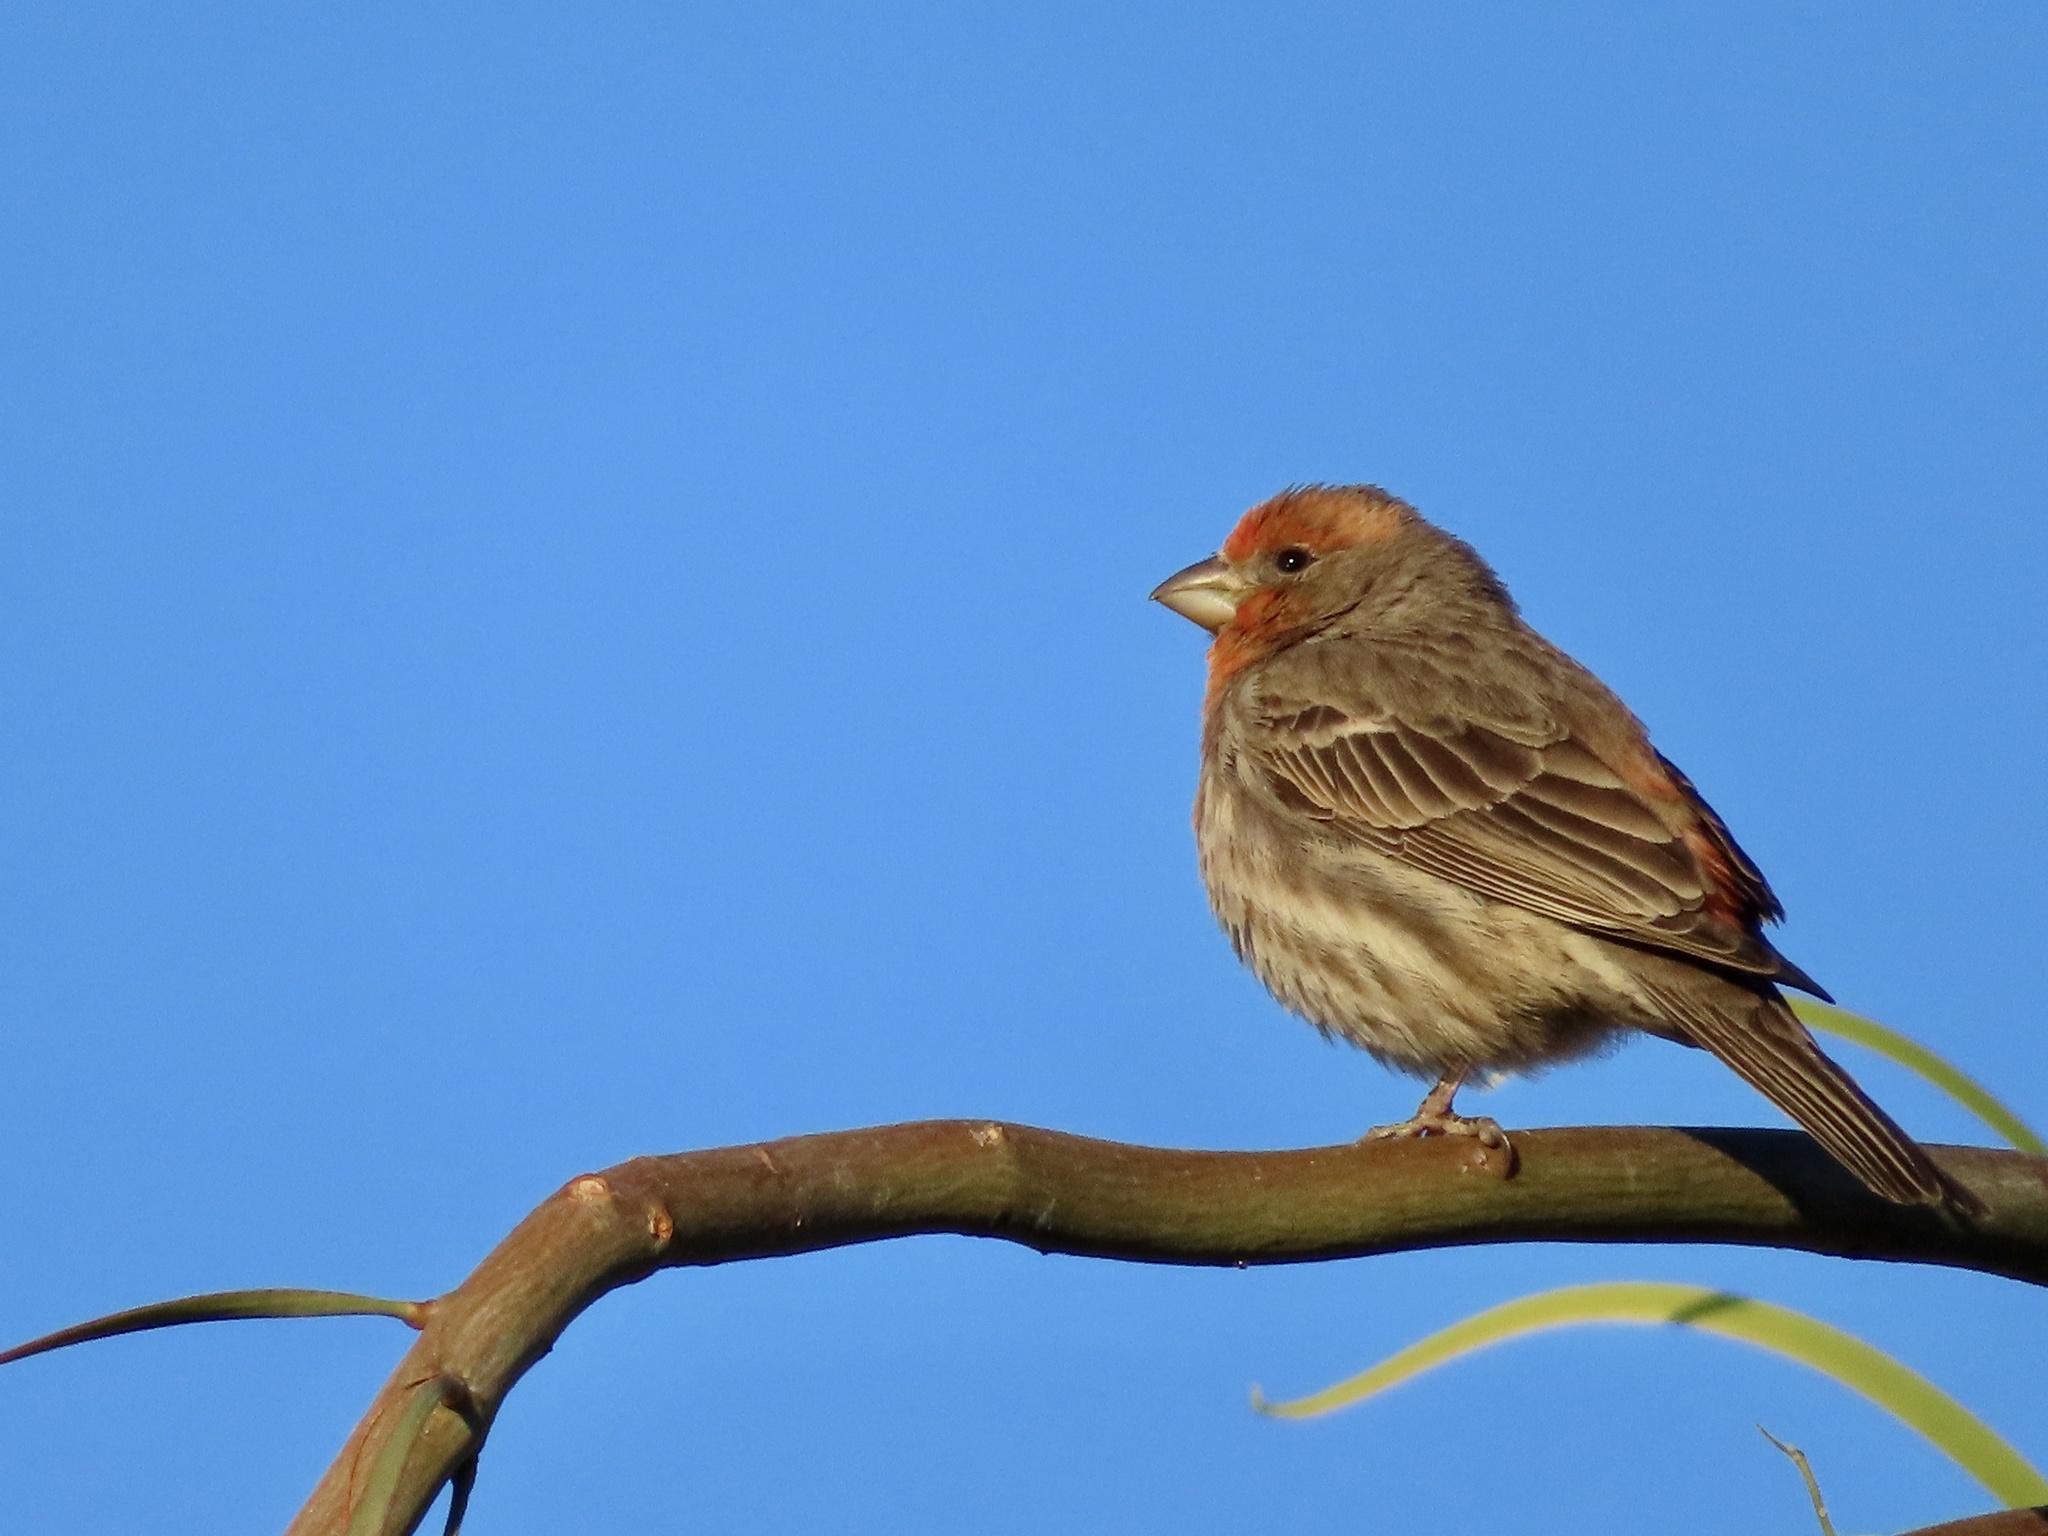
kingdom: Animalia
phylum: Chordata
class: Aves
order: Passeriformes
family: Fringillidae
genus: Haemorhous
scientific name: Haemorhous mexicanus
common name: House finch
